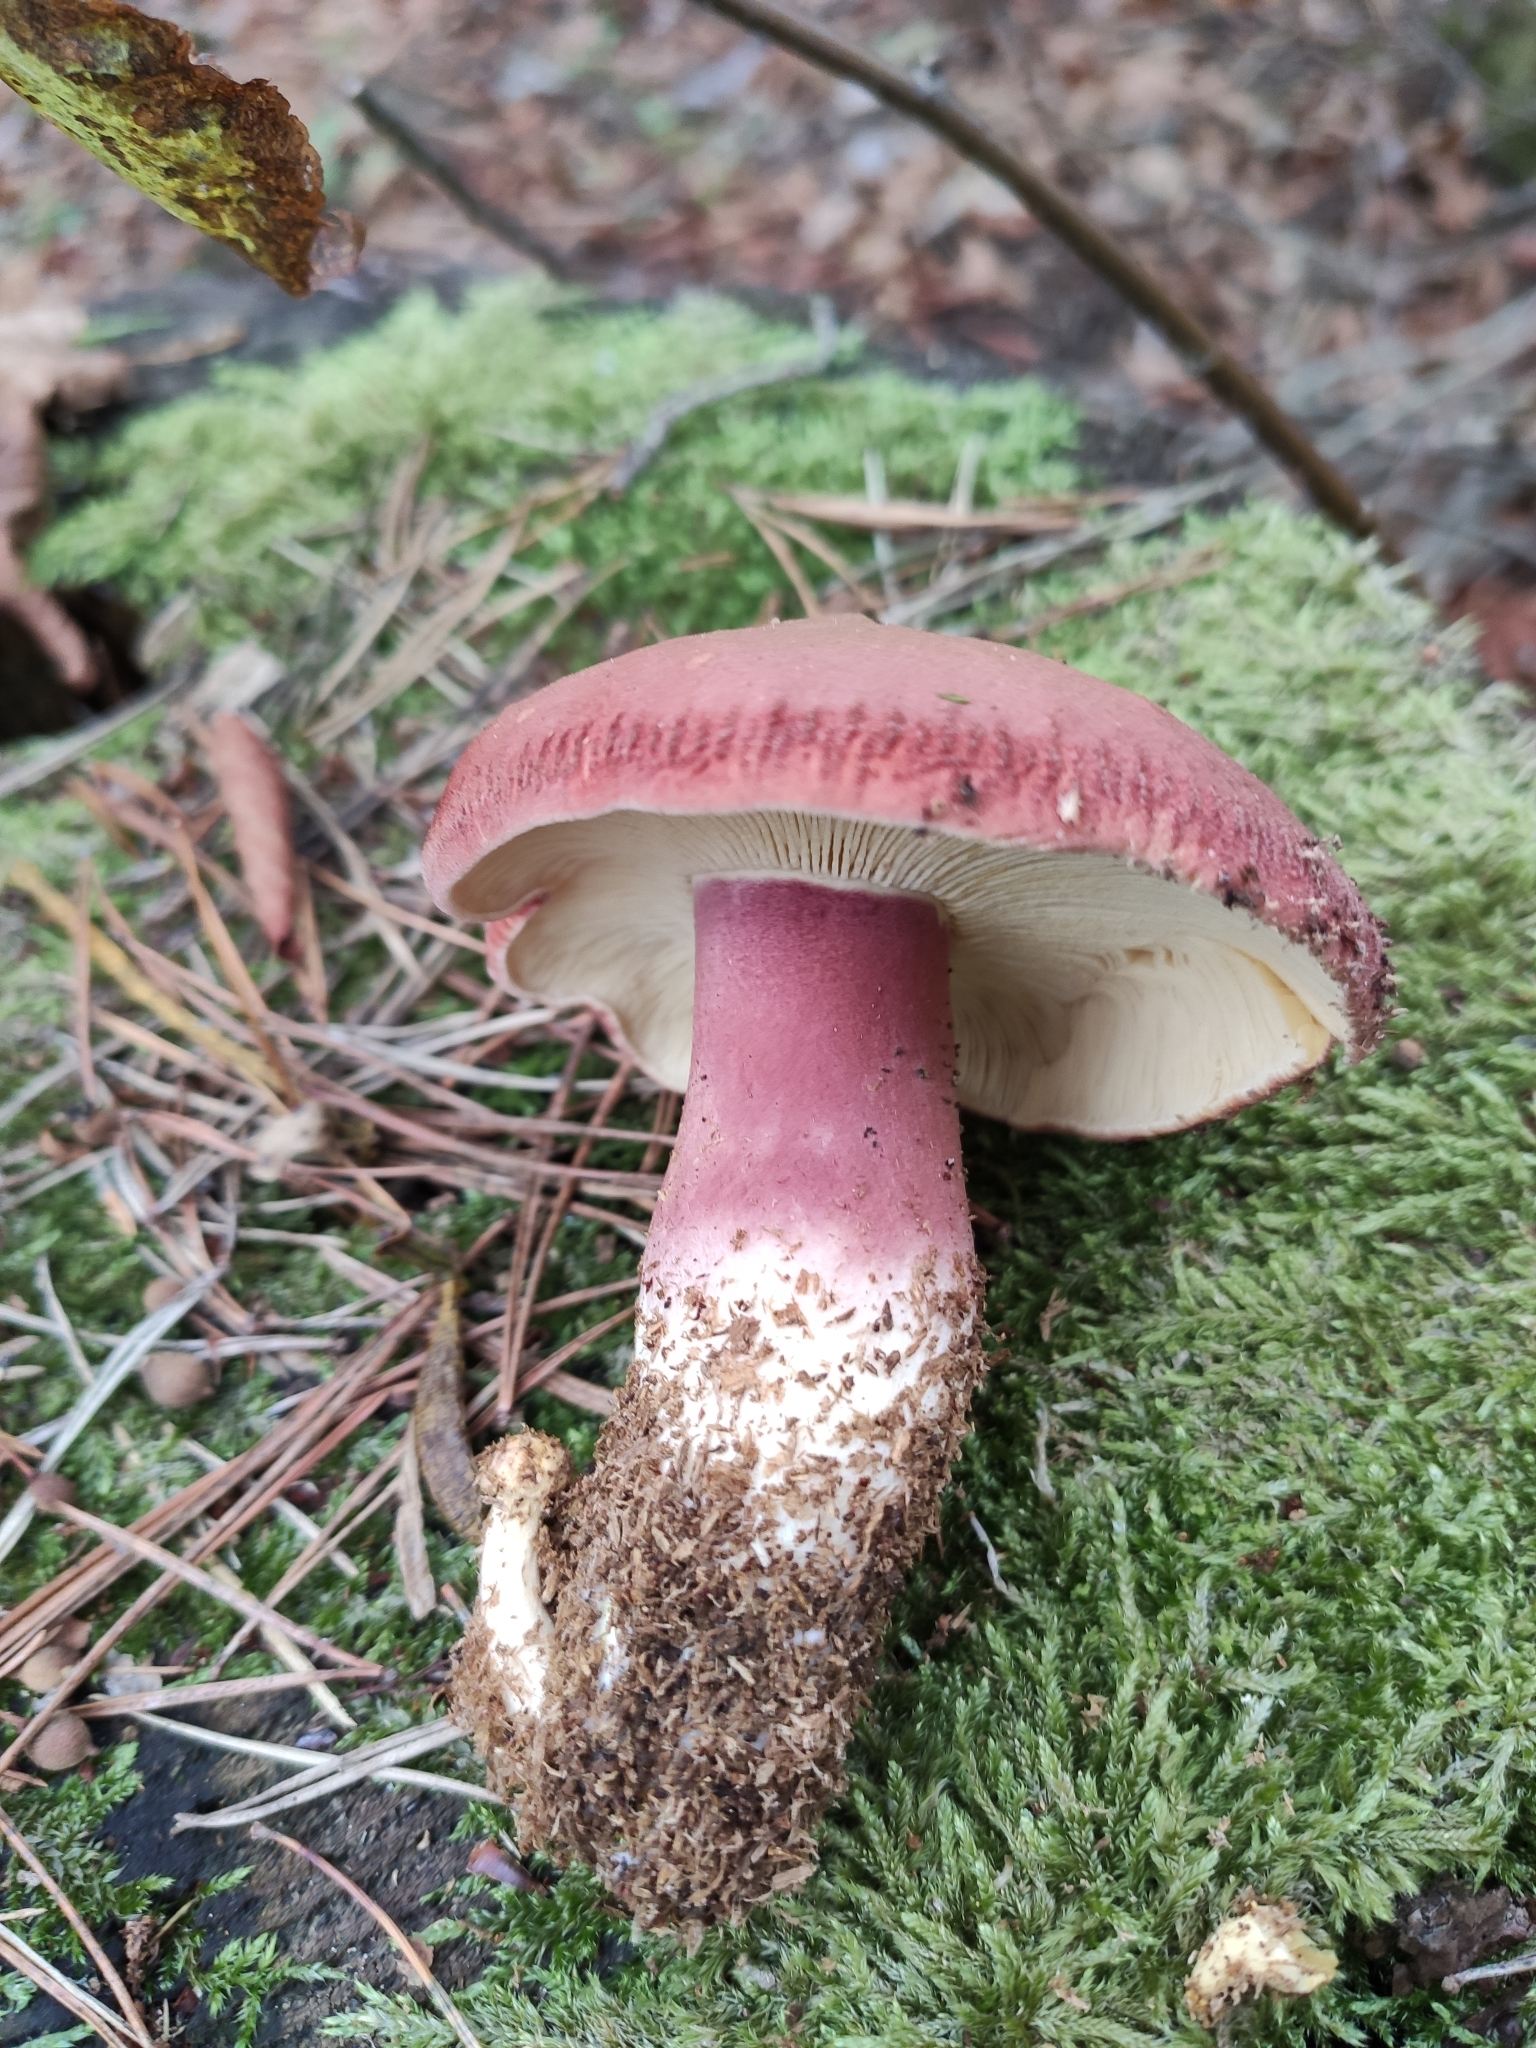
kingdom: Fungi
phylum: Basidiomycota
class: Agaricomycetes
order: Agaricales
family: Tricholomataceae
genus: Tricholomopsis
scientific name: Tricholomopsis rutilans
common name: Plums and custard
